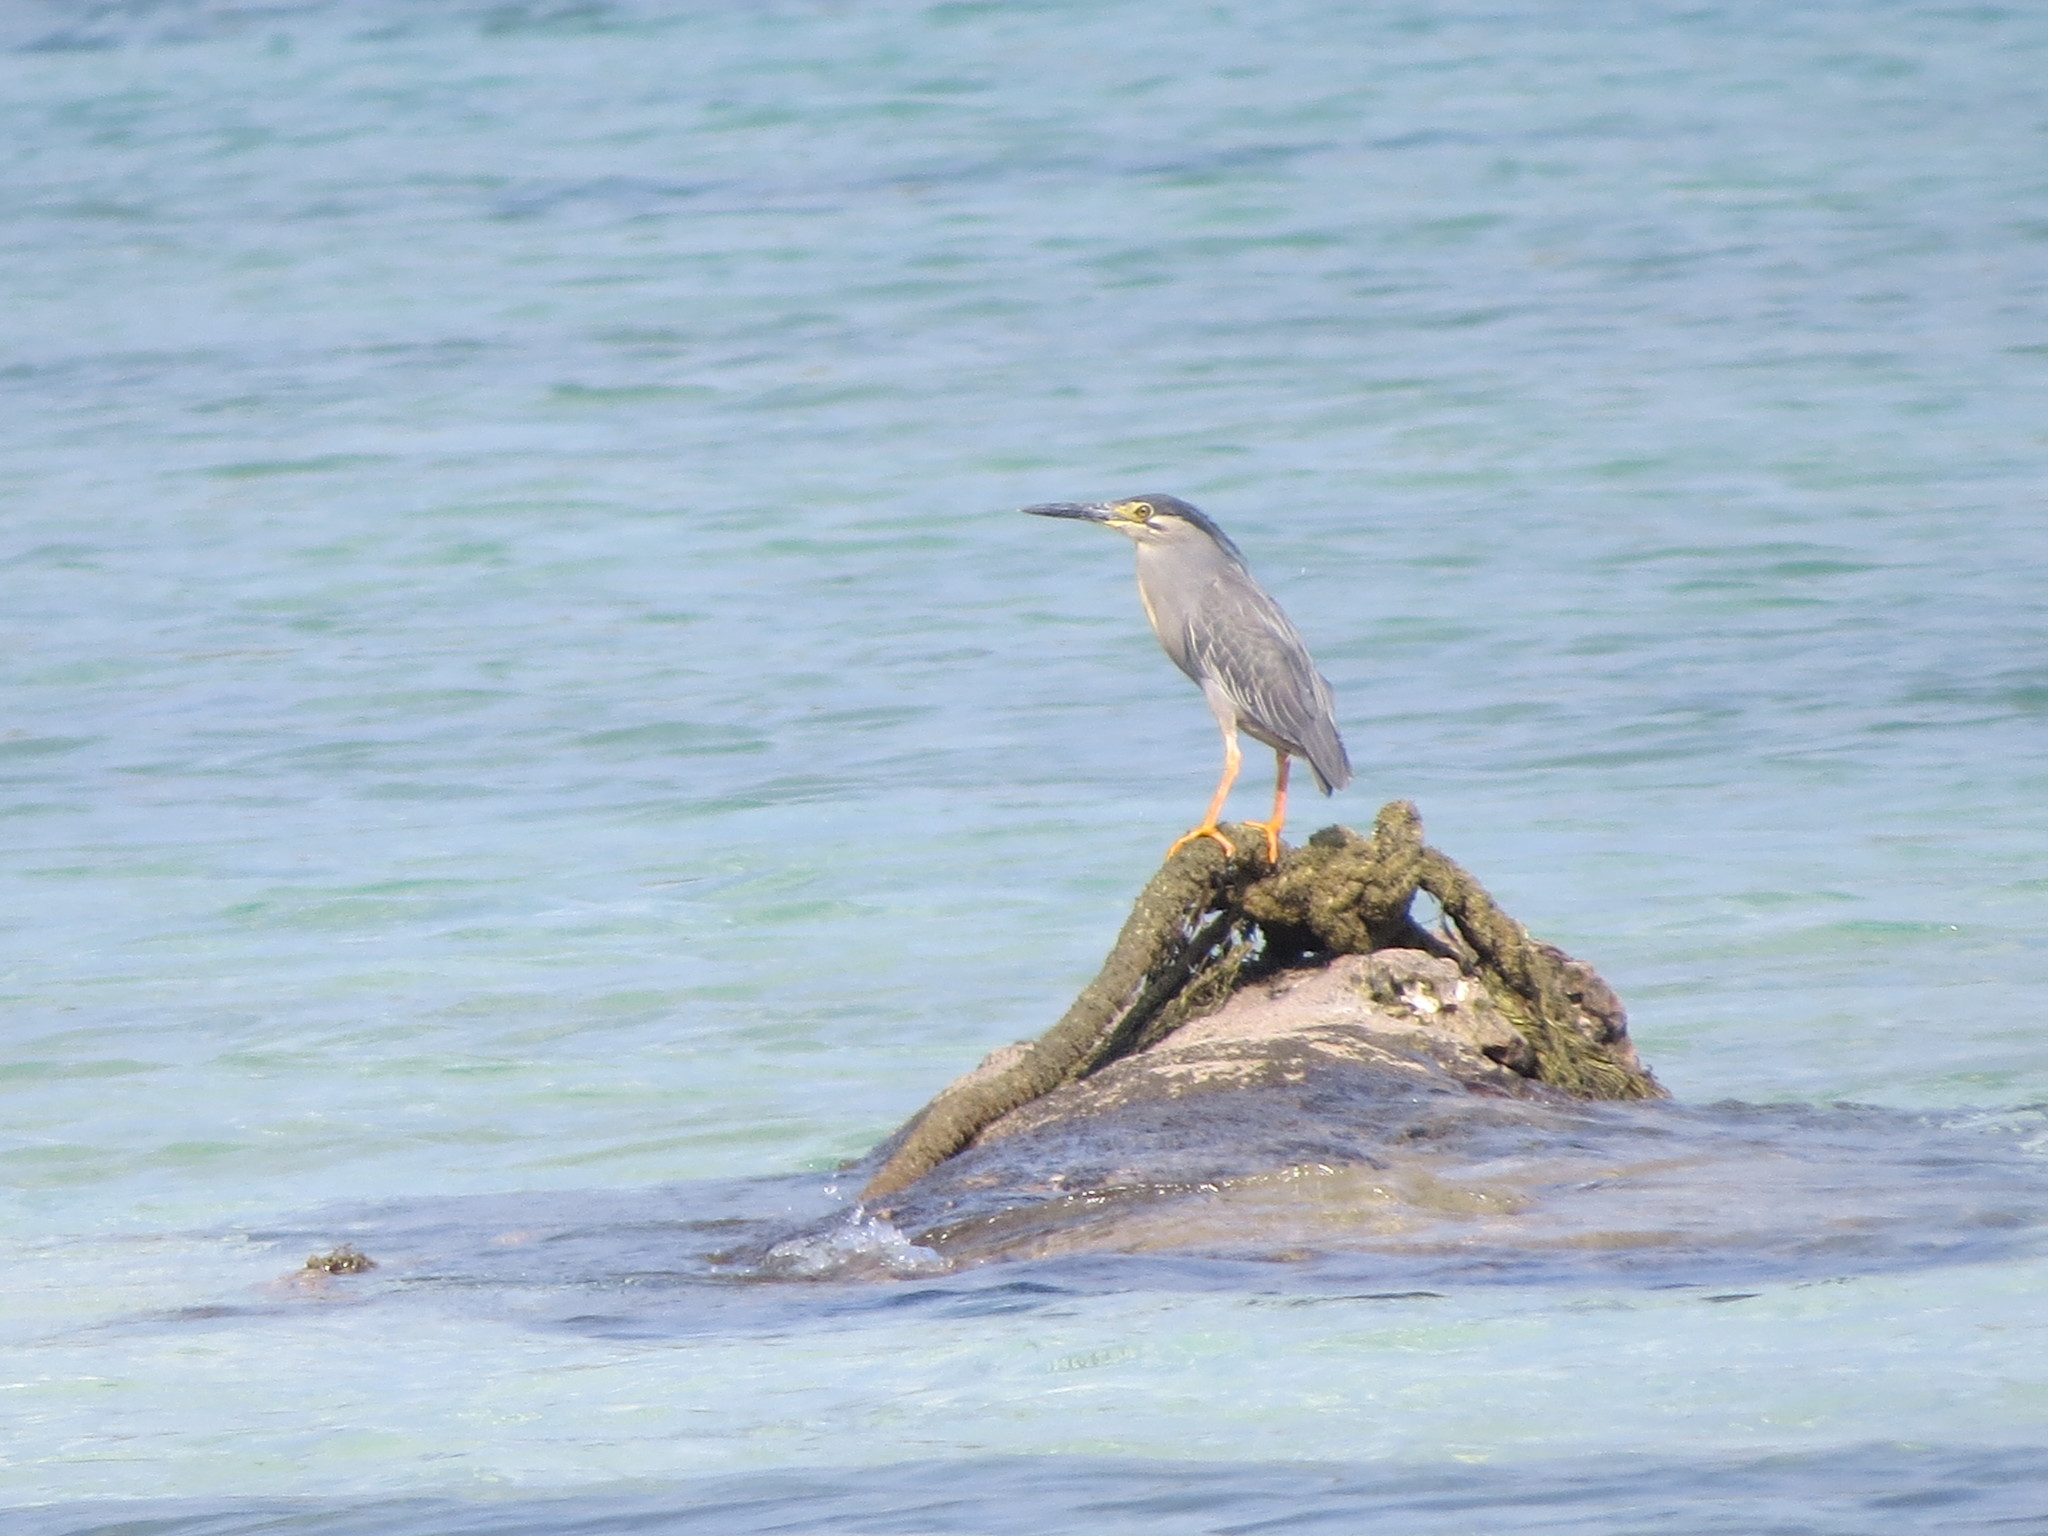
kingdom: Animalia
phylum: Chordata
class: Aves
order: Pelecaniformes
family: Ardeidae
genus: Butorides
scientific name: Butorides striata
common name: Striated heron
